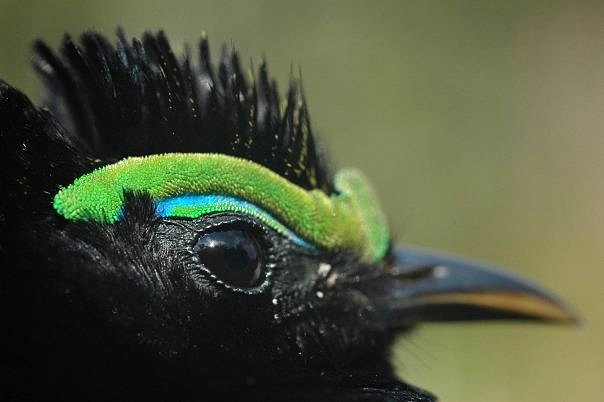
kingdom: Animalia
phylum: Chordata
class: Aves
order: Passeriformes
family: Philepittidae
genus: Philepitta
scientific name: Philepitta castanea
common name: Velvet asity
